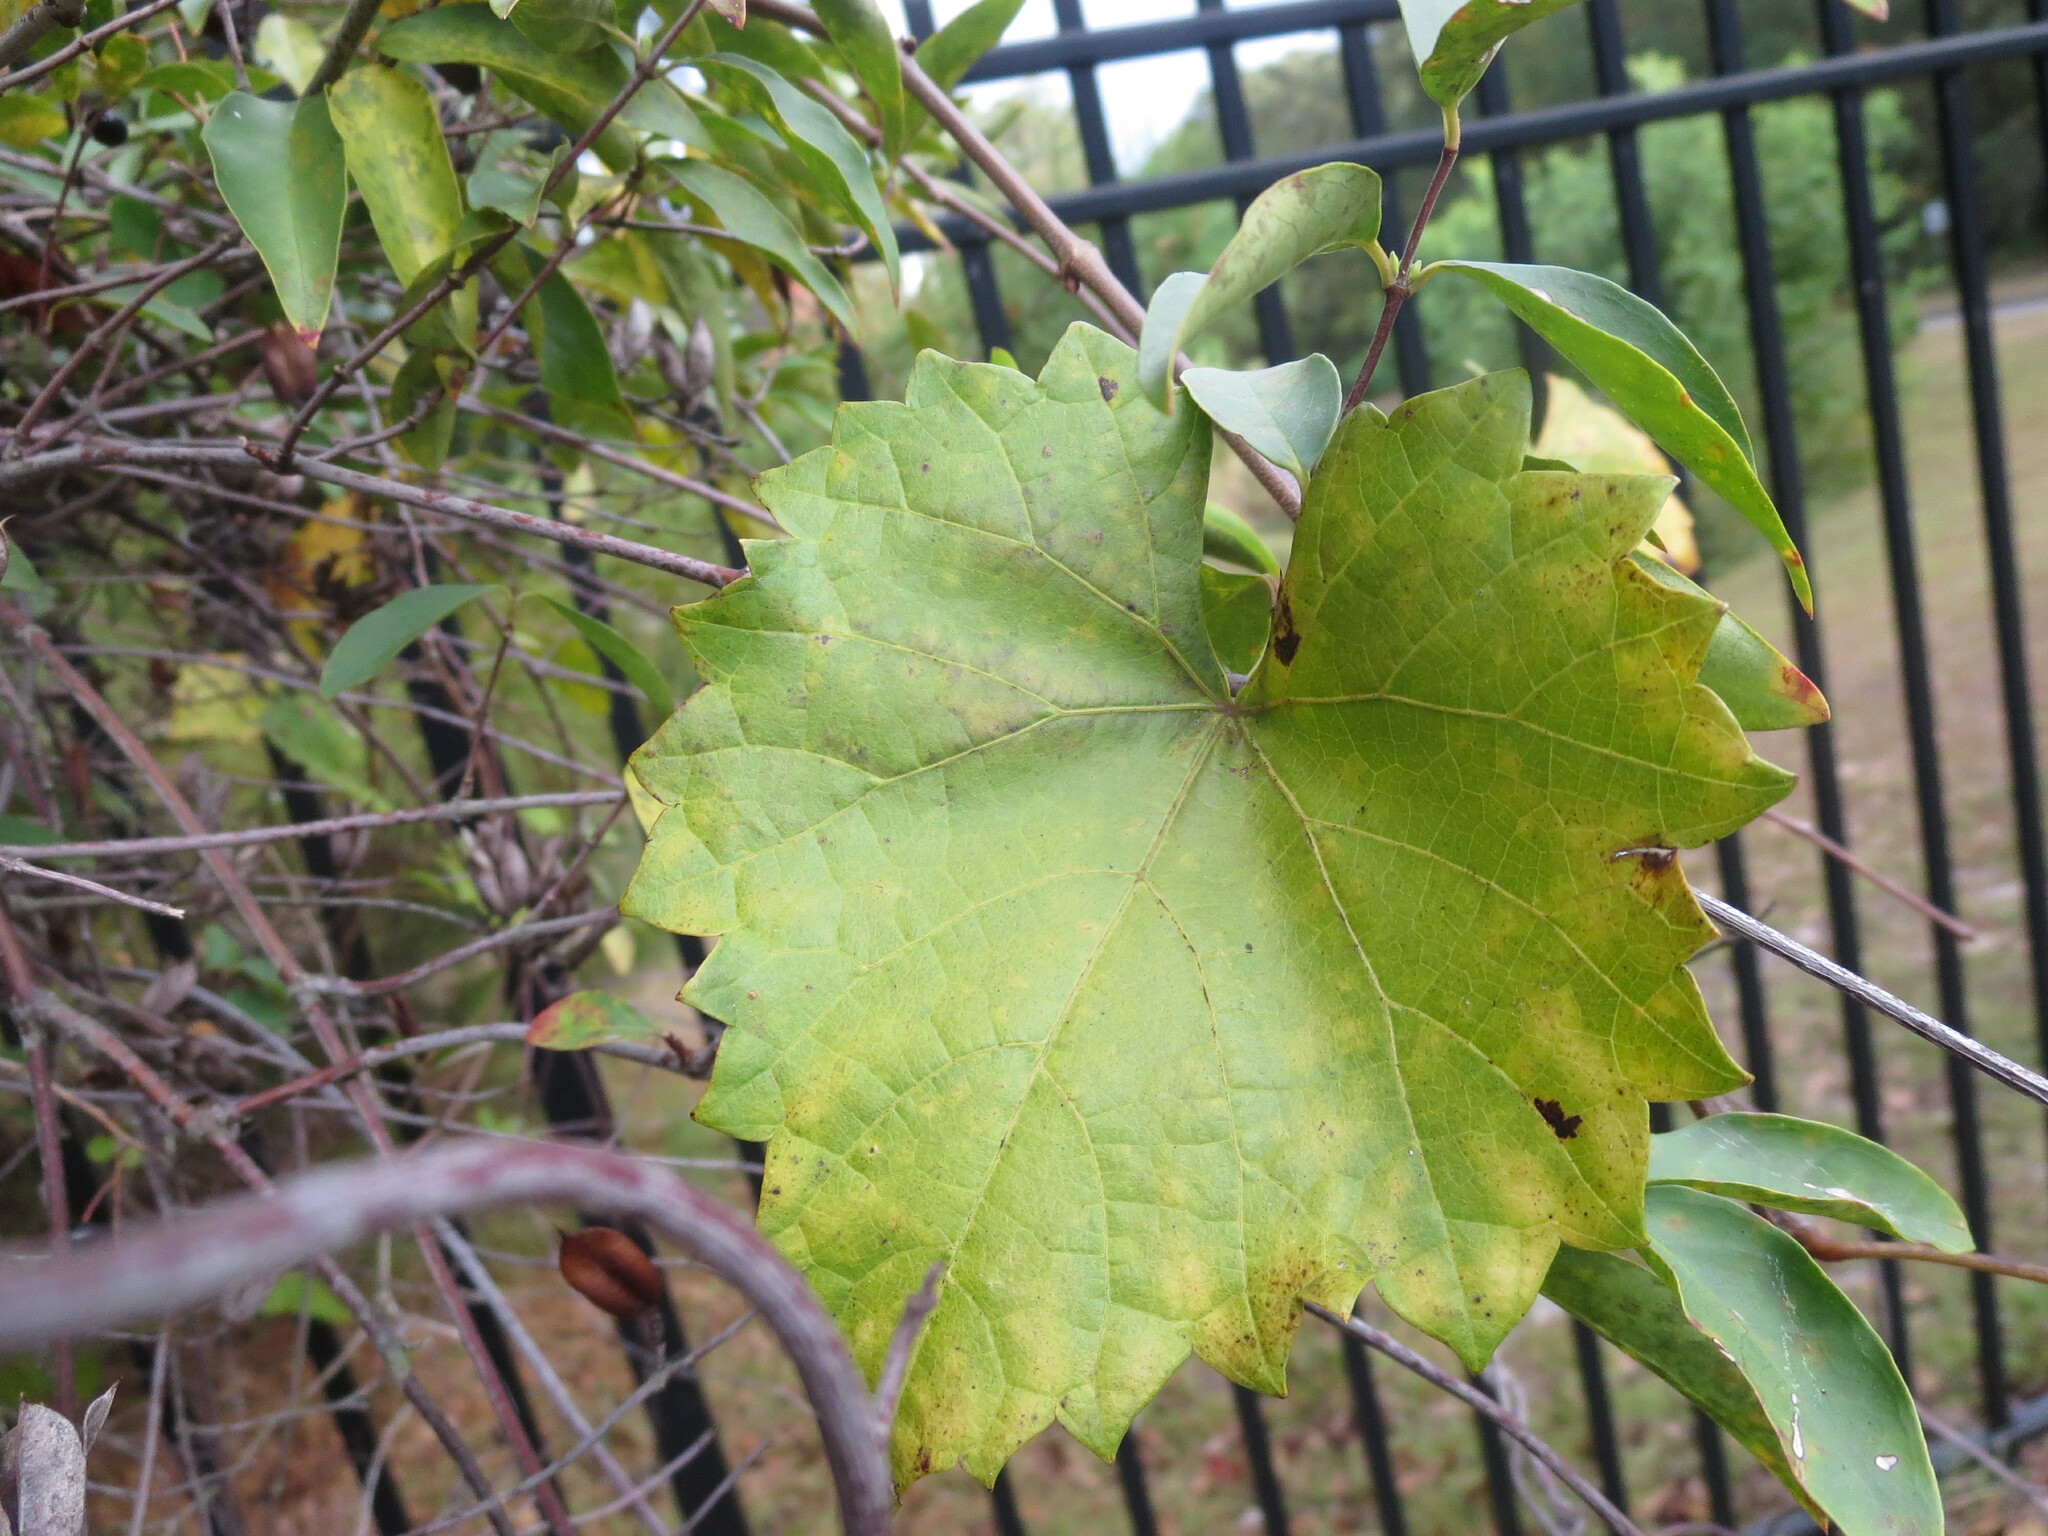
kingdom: Plantae
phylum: Tracheophyta
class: Magnoliopsida
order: Vitales
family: Vitaceae
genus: Vitis
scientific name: Vitis rotundifolia
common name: Muscadine grape
